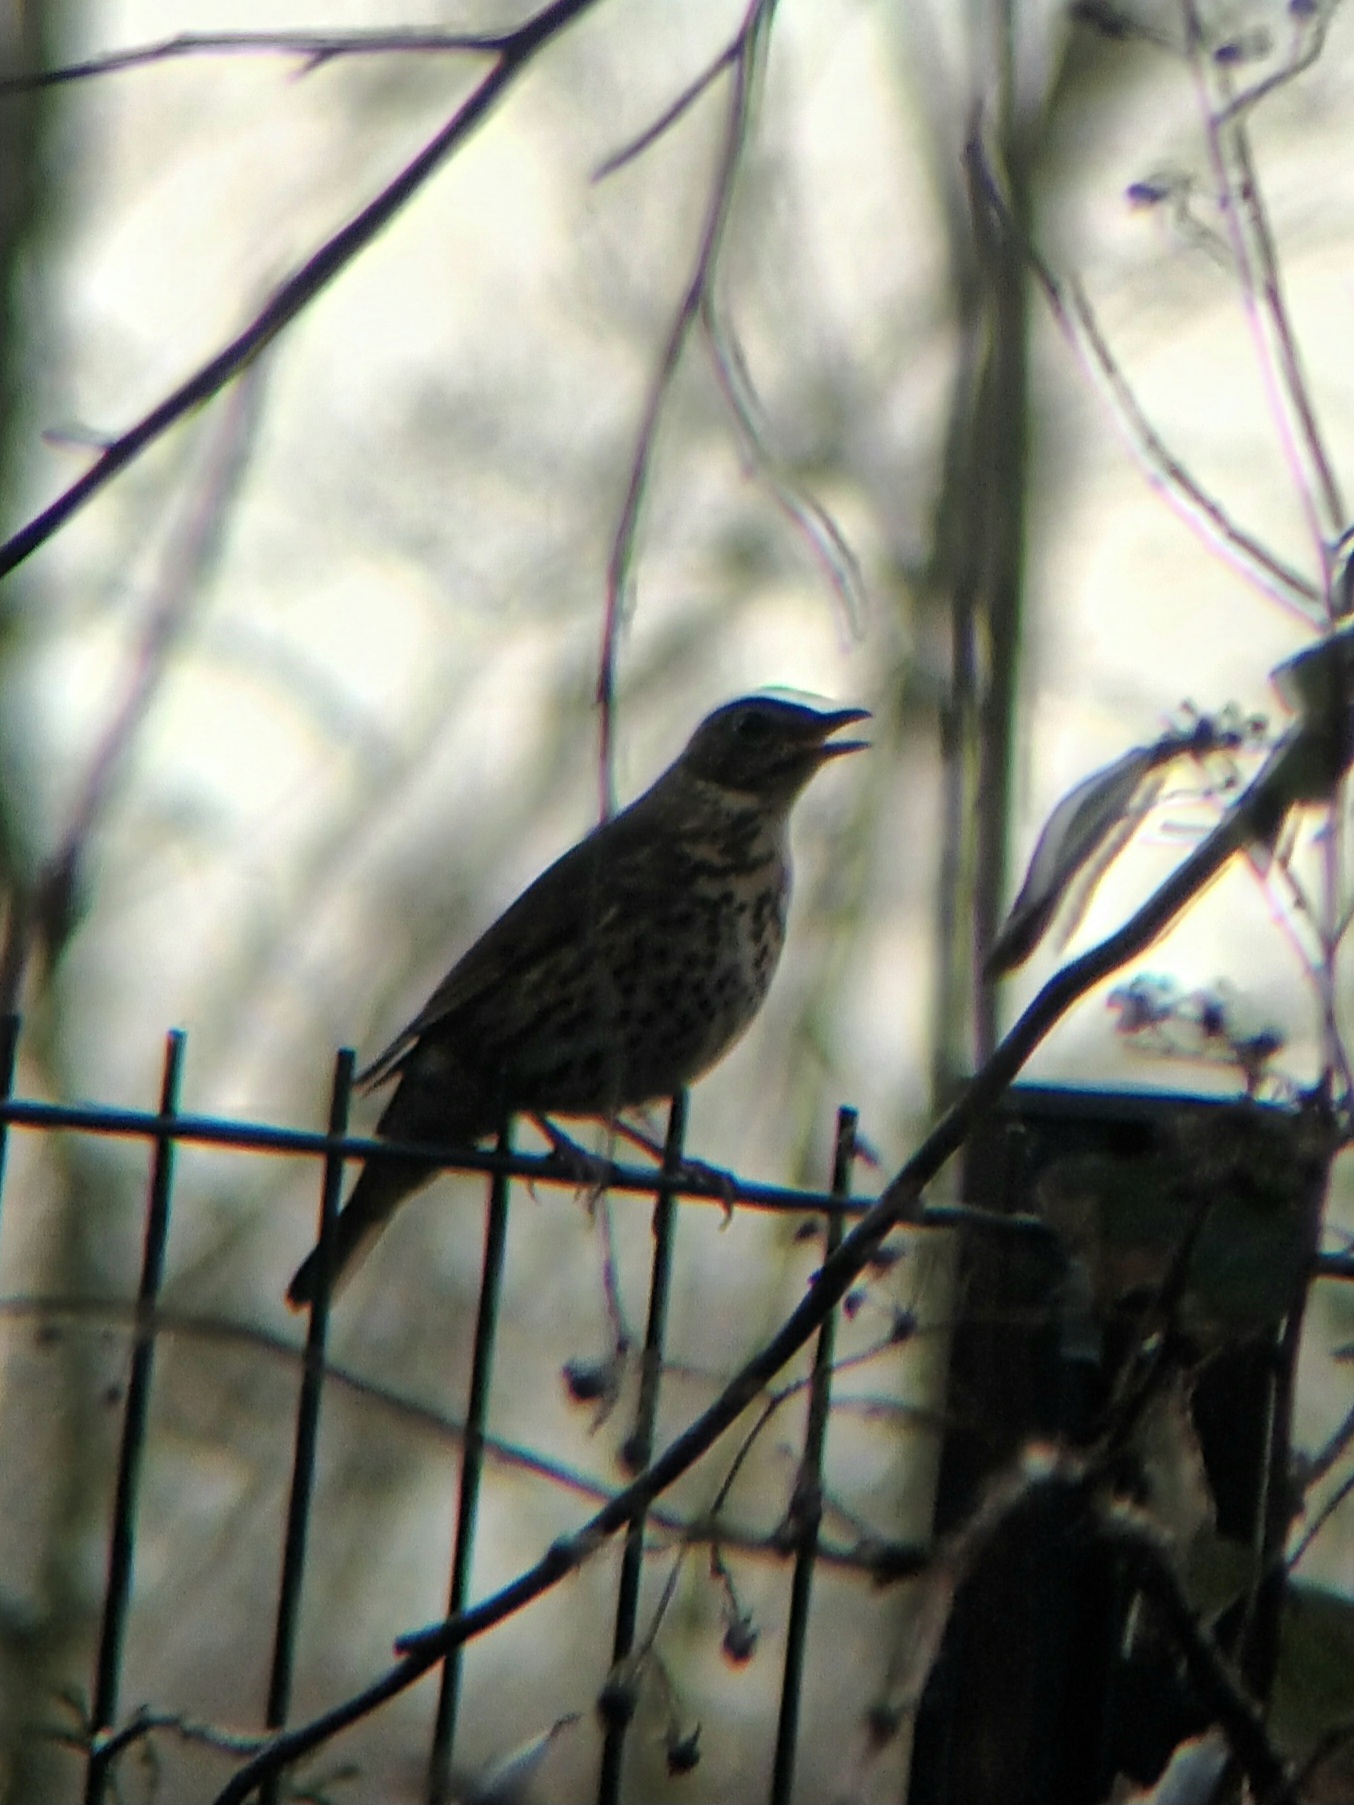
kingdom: Animalia
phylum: Chordata
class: Aves
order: Passeriformes
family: Turdidae
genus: Turdus
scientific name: Turdus philomelos
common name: Song thrush
